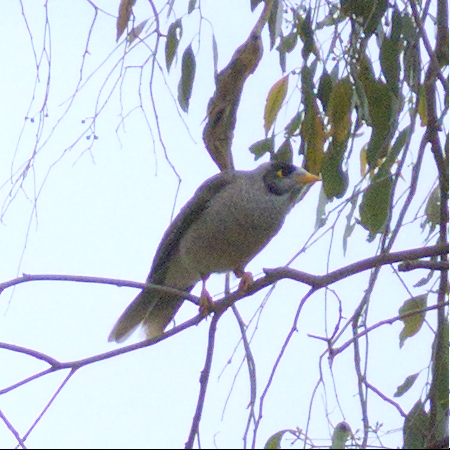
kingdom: Animalia
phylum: Chordata
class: Aves
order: Passeriformes
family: Meliphagidae
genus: Manorina
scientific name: Manorina melanocephala
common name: Noisy miner
